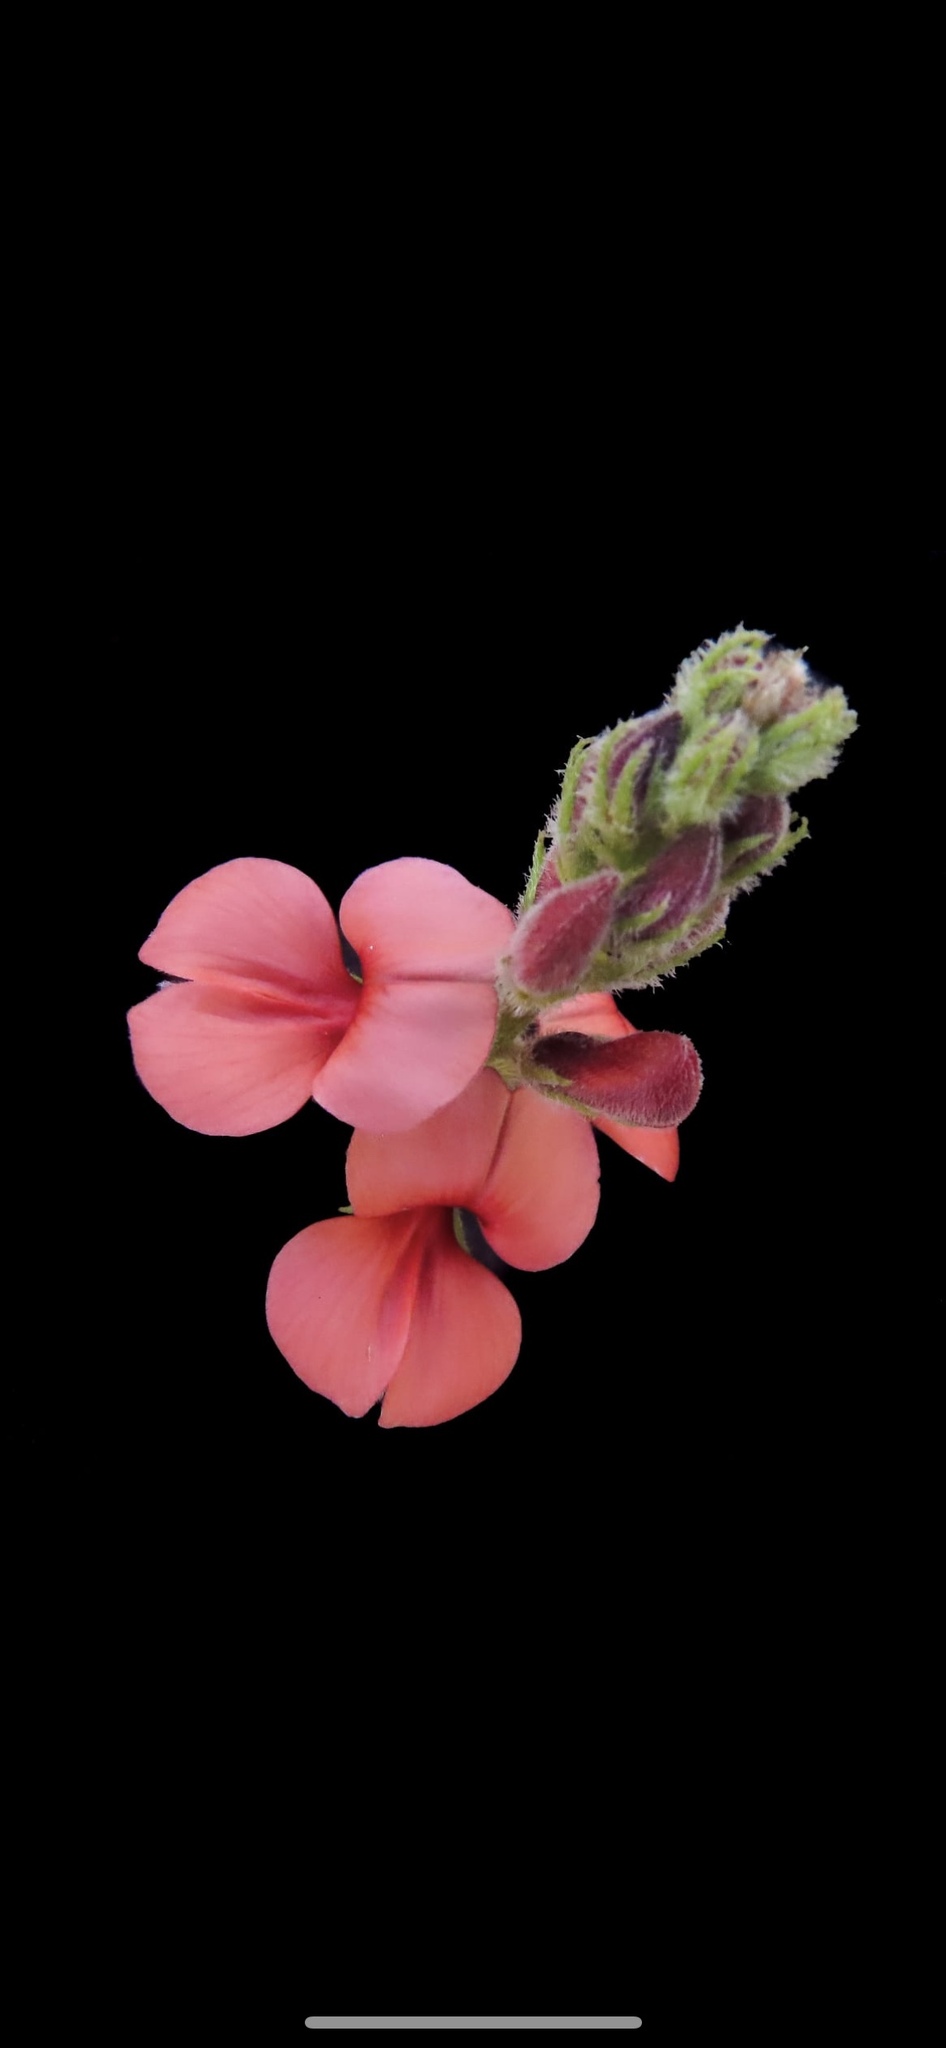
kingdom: Plantae
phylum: Tracheophyta
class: Magnoliopsida
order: Fabales
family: Fabaceae
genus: Indigofera
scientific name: Indigofera heterophylla
